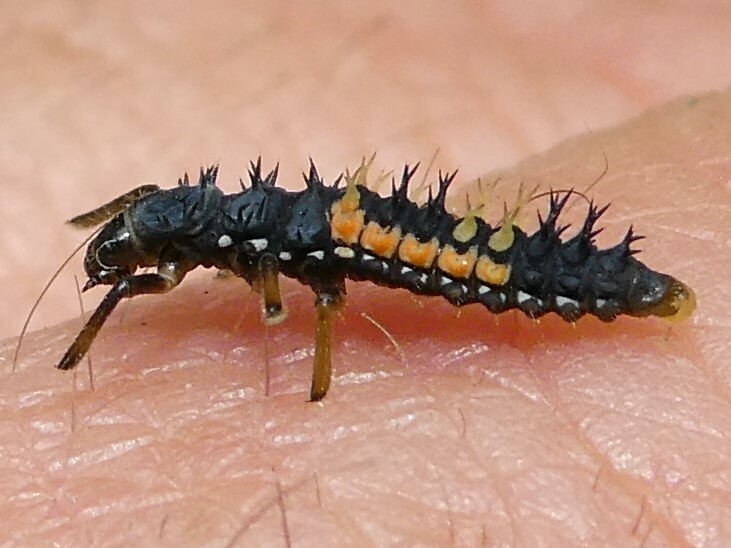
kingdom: Animalia
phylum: Arthropoda
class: Insecta
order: Coleoptera
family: Coccinellidae
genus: Harmonia
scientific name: Harmonia axyridis
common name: Harlequin ladybird
